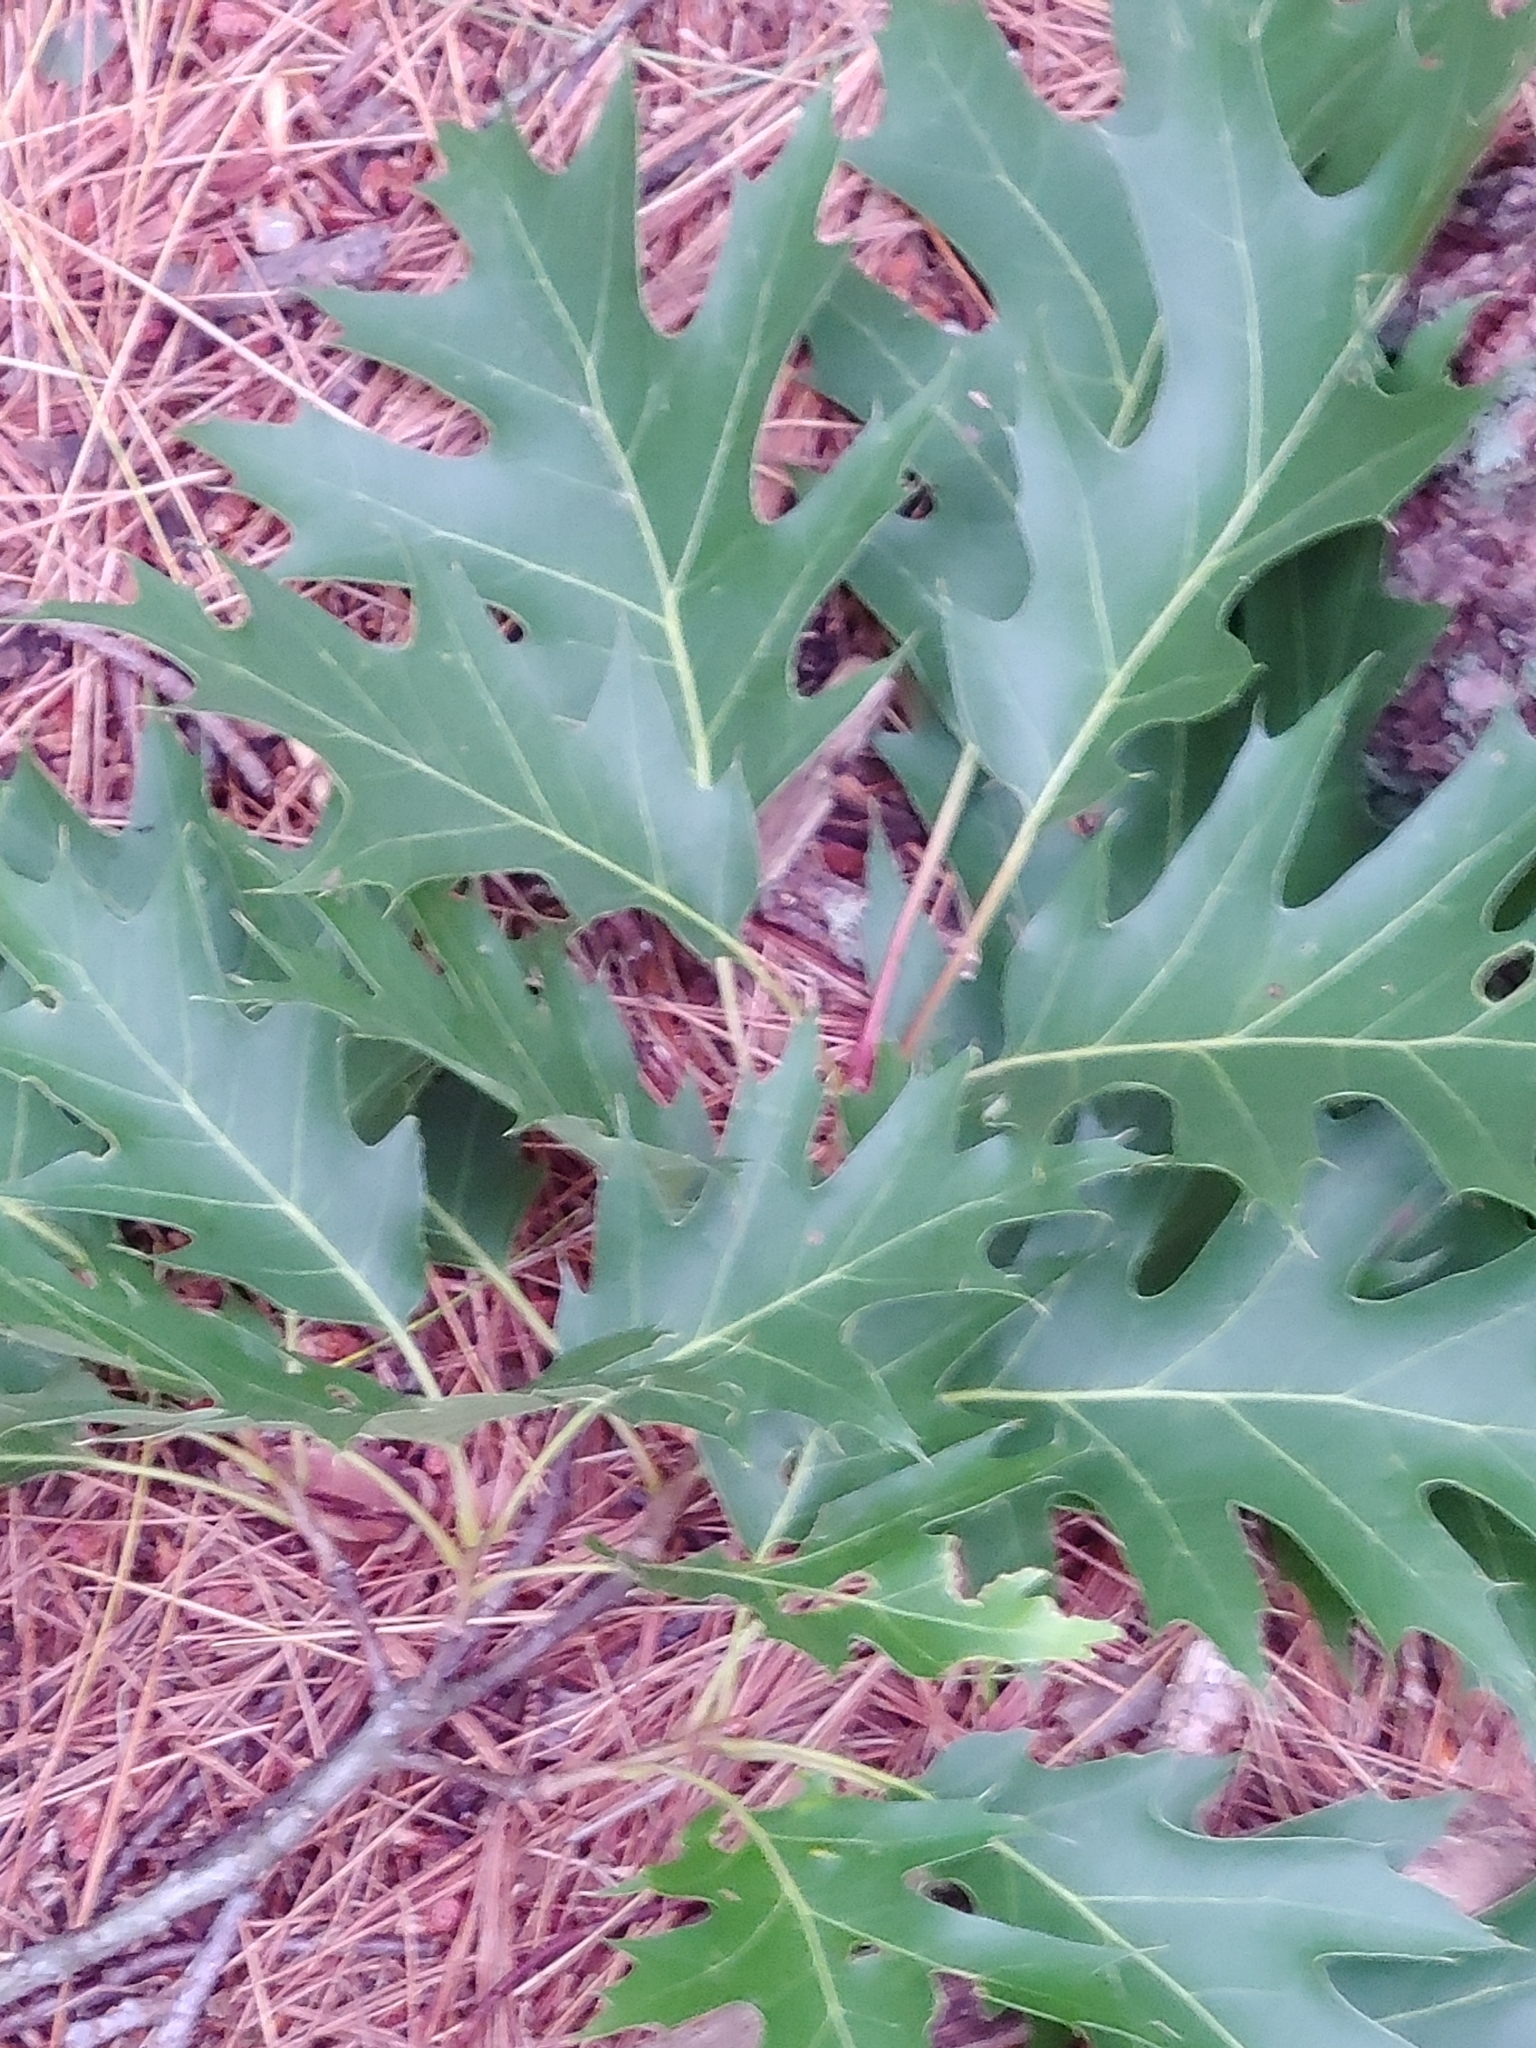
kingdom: Plantae
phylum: Tracheophyta
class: Magnoliopsida
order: Fagales
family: Fagaceae
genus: Quercus
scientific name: Quercus rubra
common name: Red oak
